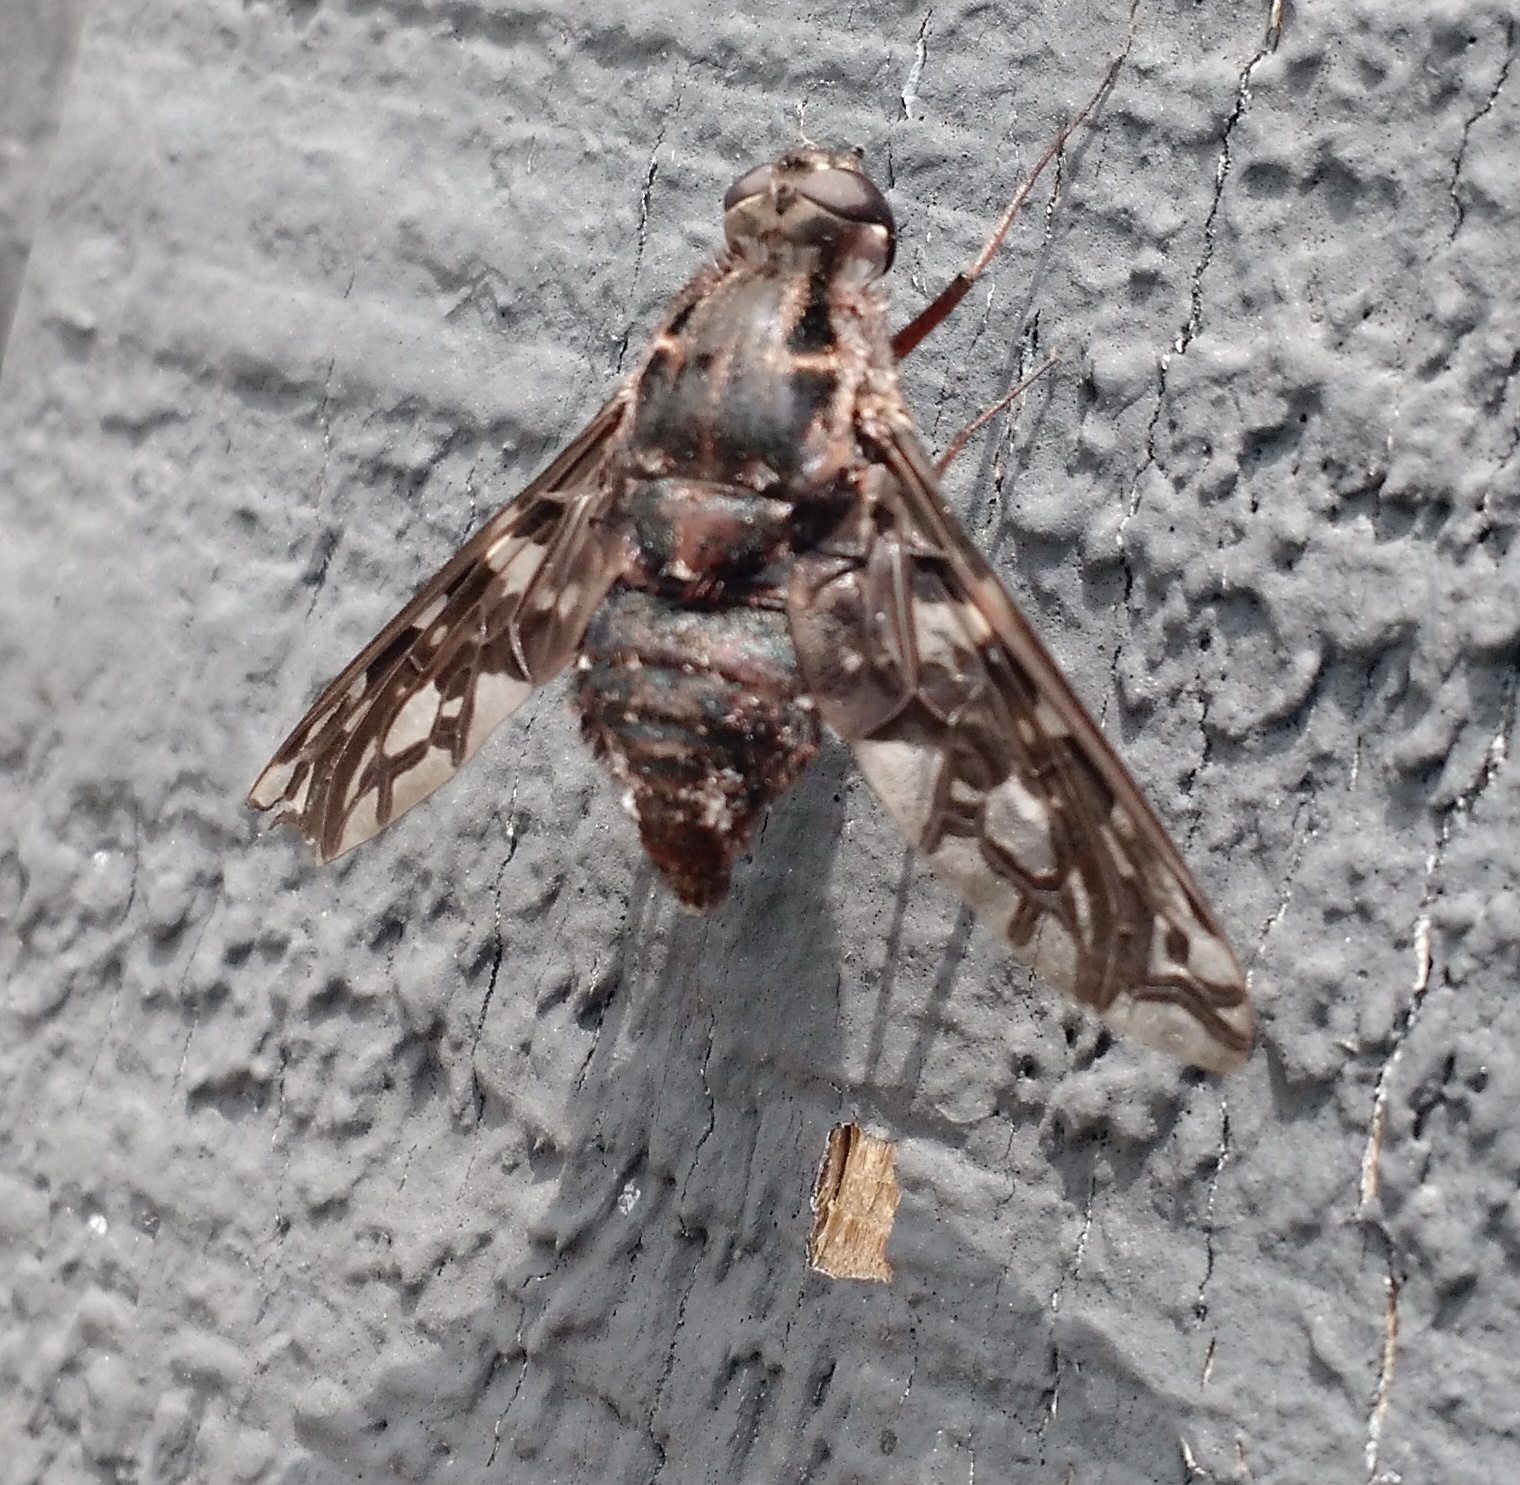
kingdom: Animalia
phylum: Arthropoda
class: Insecta
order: Diptera
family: Bombyliidae
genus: Xenox
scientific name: Xenox tigrinus
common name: Tiger bee fly
